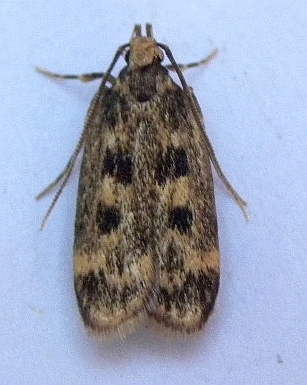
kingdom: Animalia
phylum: Arthropoda
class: Insecta
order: Lepidoptera
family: Lecithoceridae
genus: Martyringa
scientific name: Martyringa latipennis
